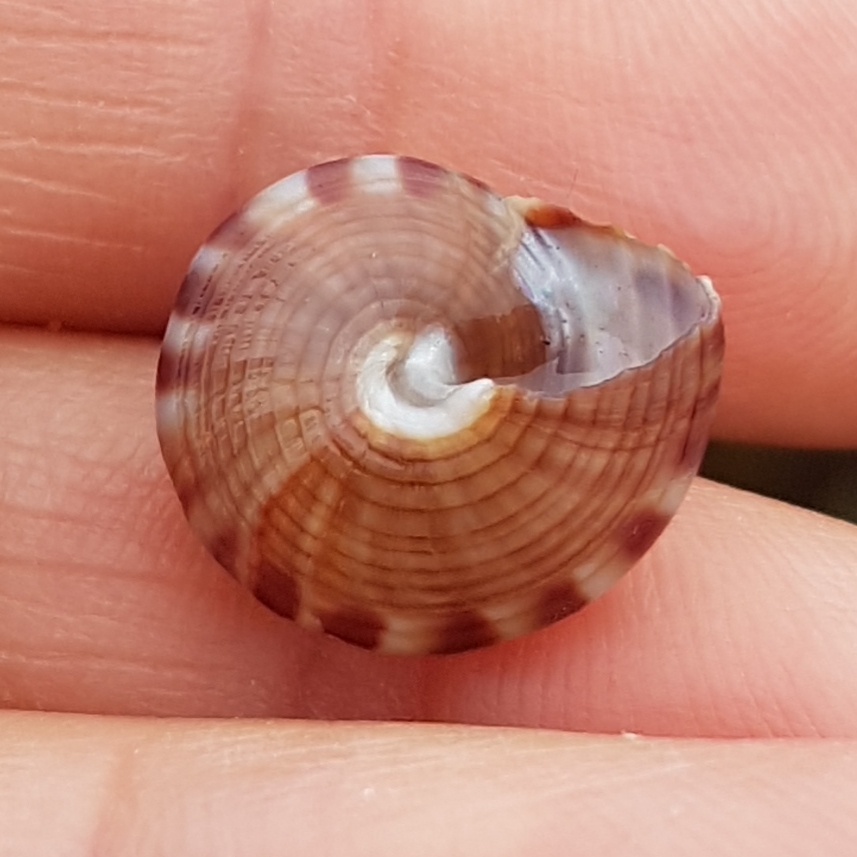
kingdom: Animalia
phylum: Mollusca
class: Gastropoda
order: Trochida
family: Calliostomatidae
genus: Calliostoma
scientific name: Calliostoma zizyphinum
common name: Painted top shell
